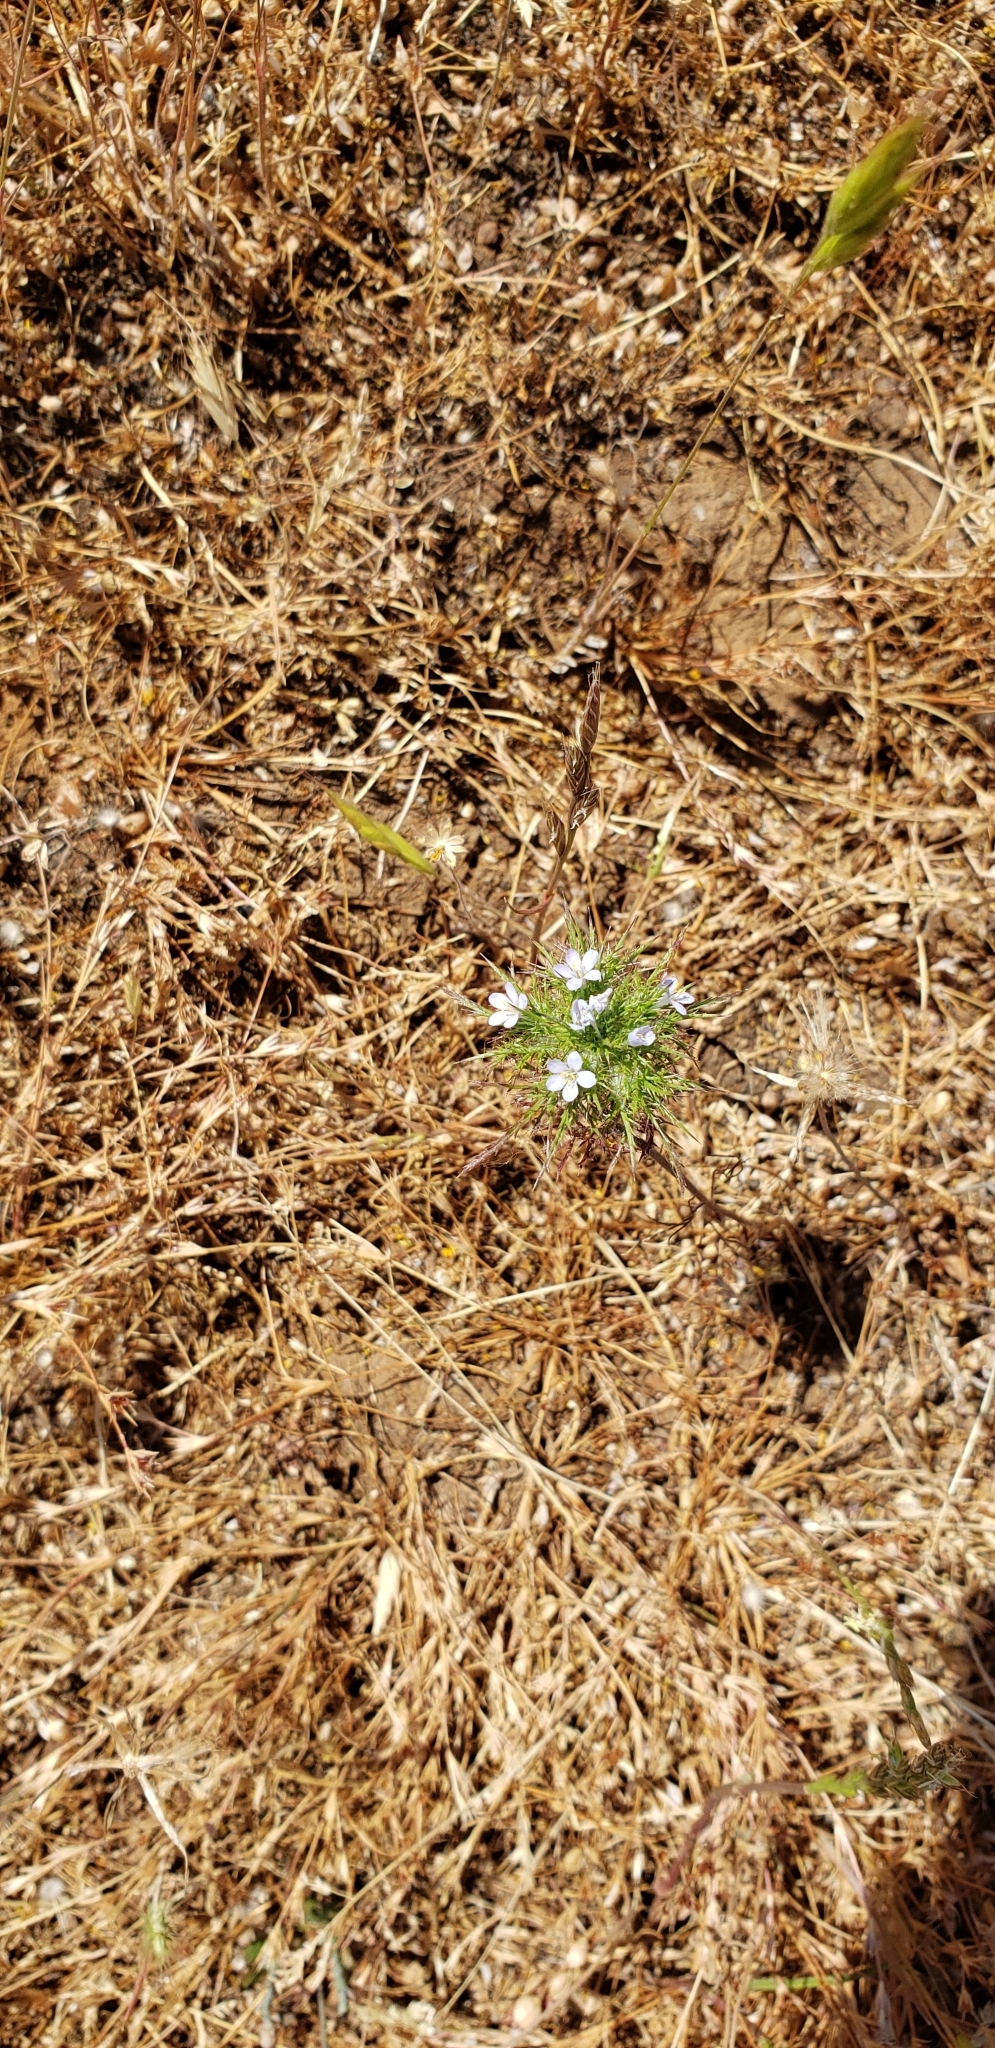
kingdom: Plantae
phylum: Tracheophyta
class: Magnoliopsida
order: Ericales
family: Polemoniaceae
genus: Navarretia
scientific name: Navarretia tagetina
